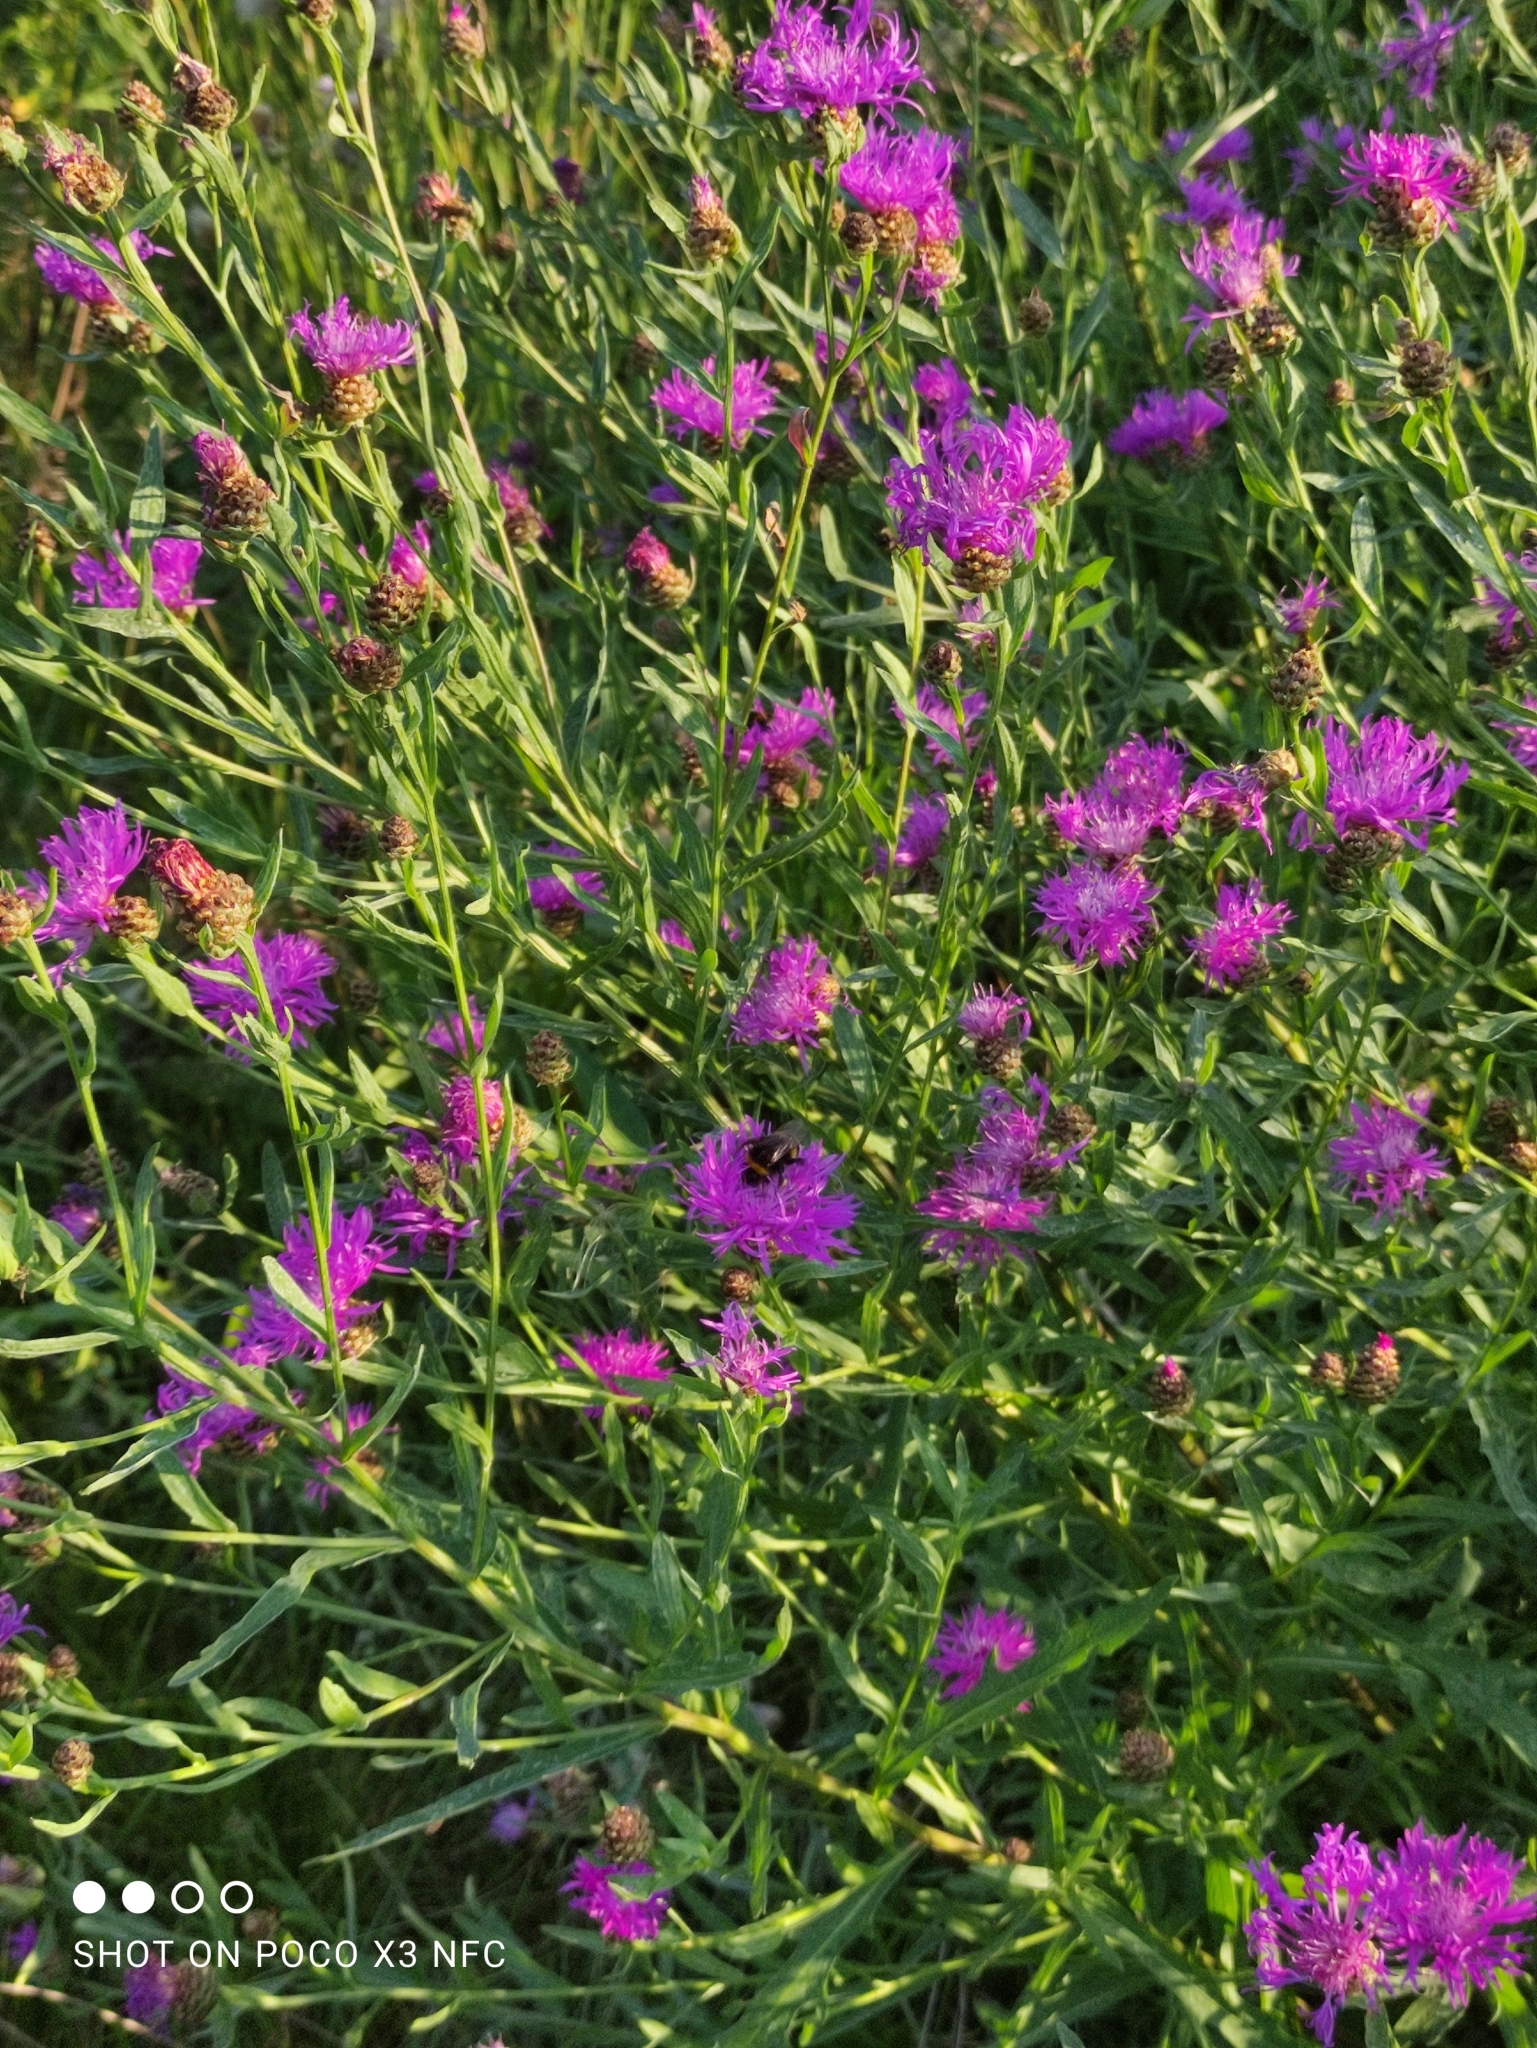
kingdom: Plantae
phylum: Tracheophyta
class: Magnoliopsida
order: Asterales
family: Asteraceae
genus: Centaurea
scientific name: Centaurea jacea
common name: Brown knapweed
